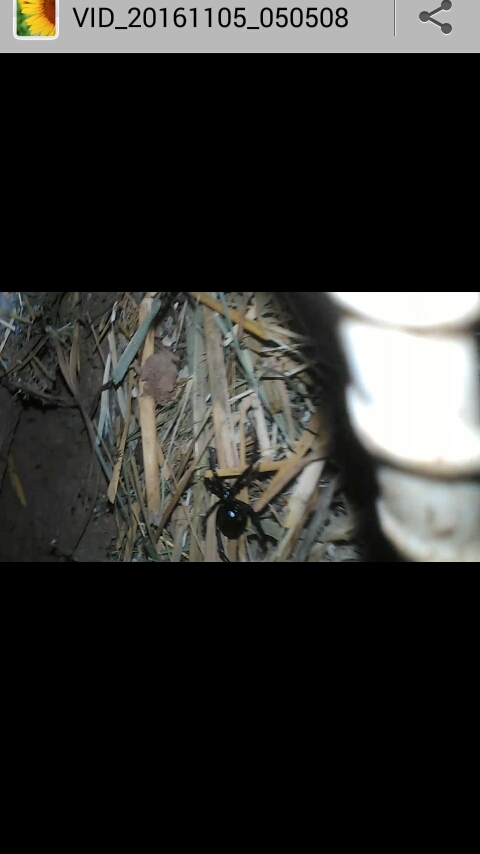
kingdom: Animalia
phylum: Arthropoda
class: Arachnida
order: Araneae
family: Theridiidae
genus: Latrodectus
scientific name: Latrodectus mactans
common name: Cobweb spiders
